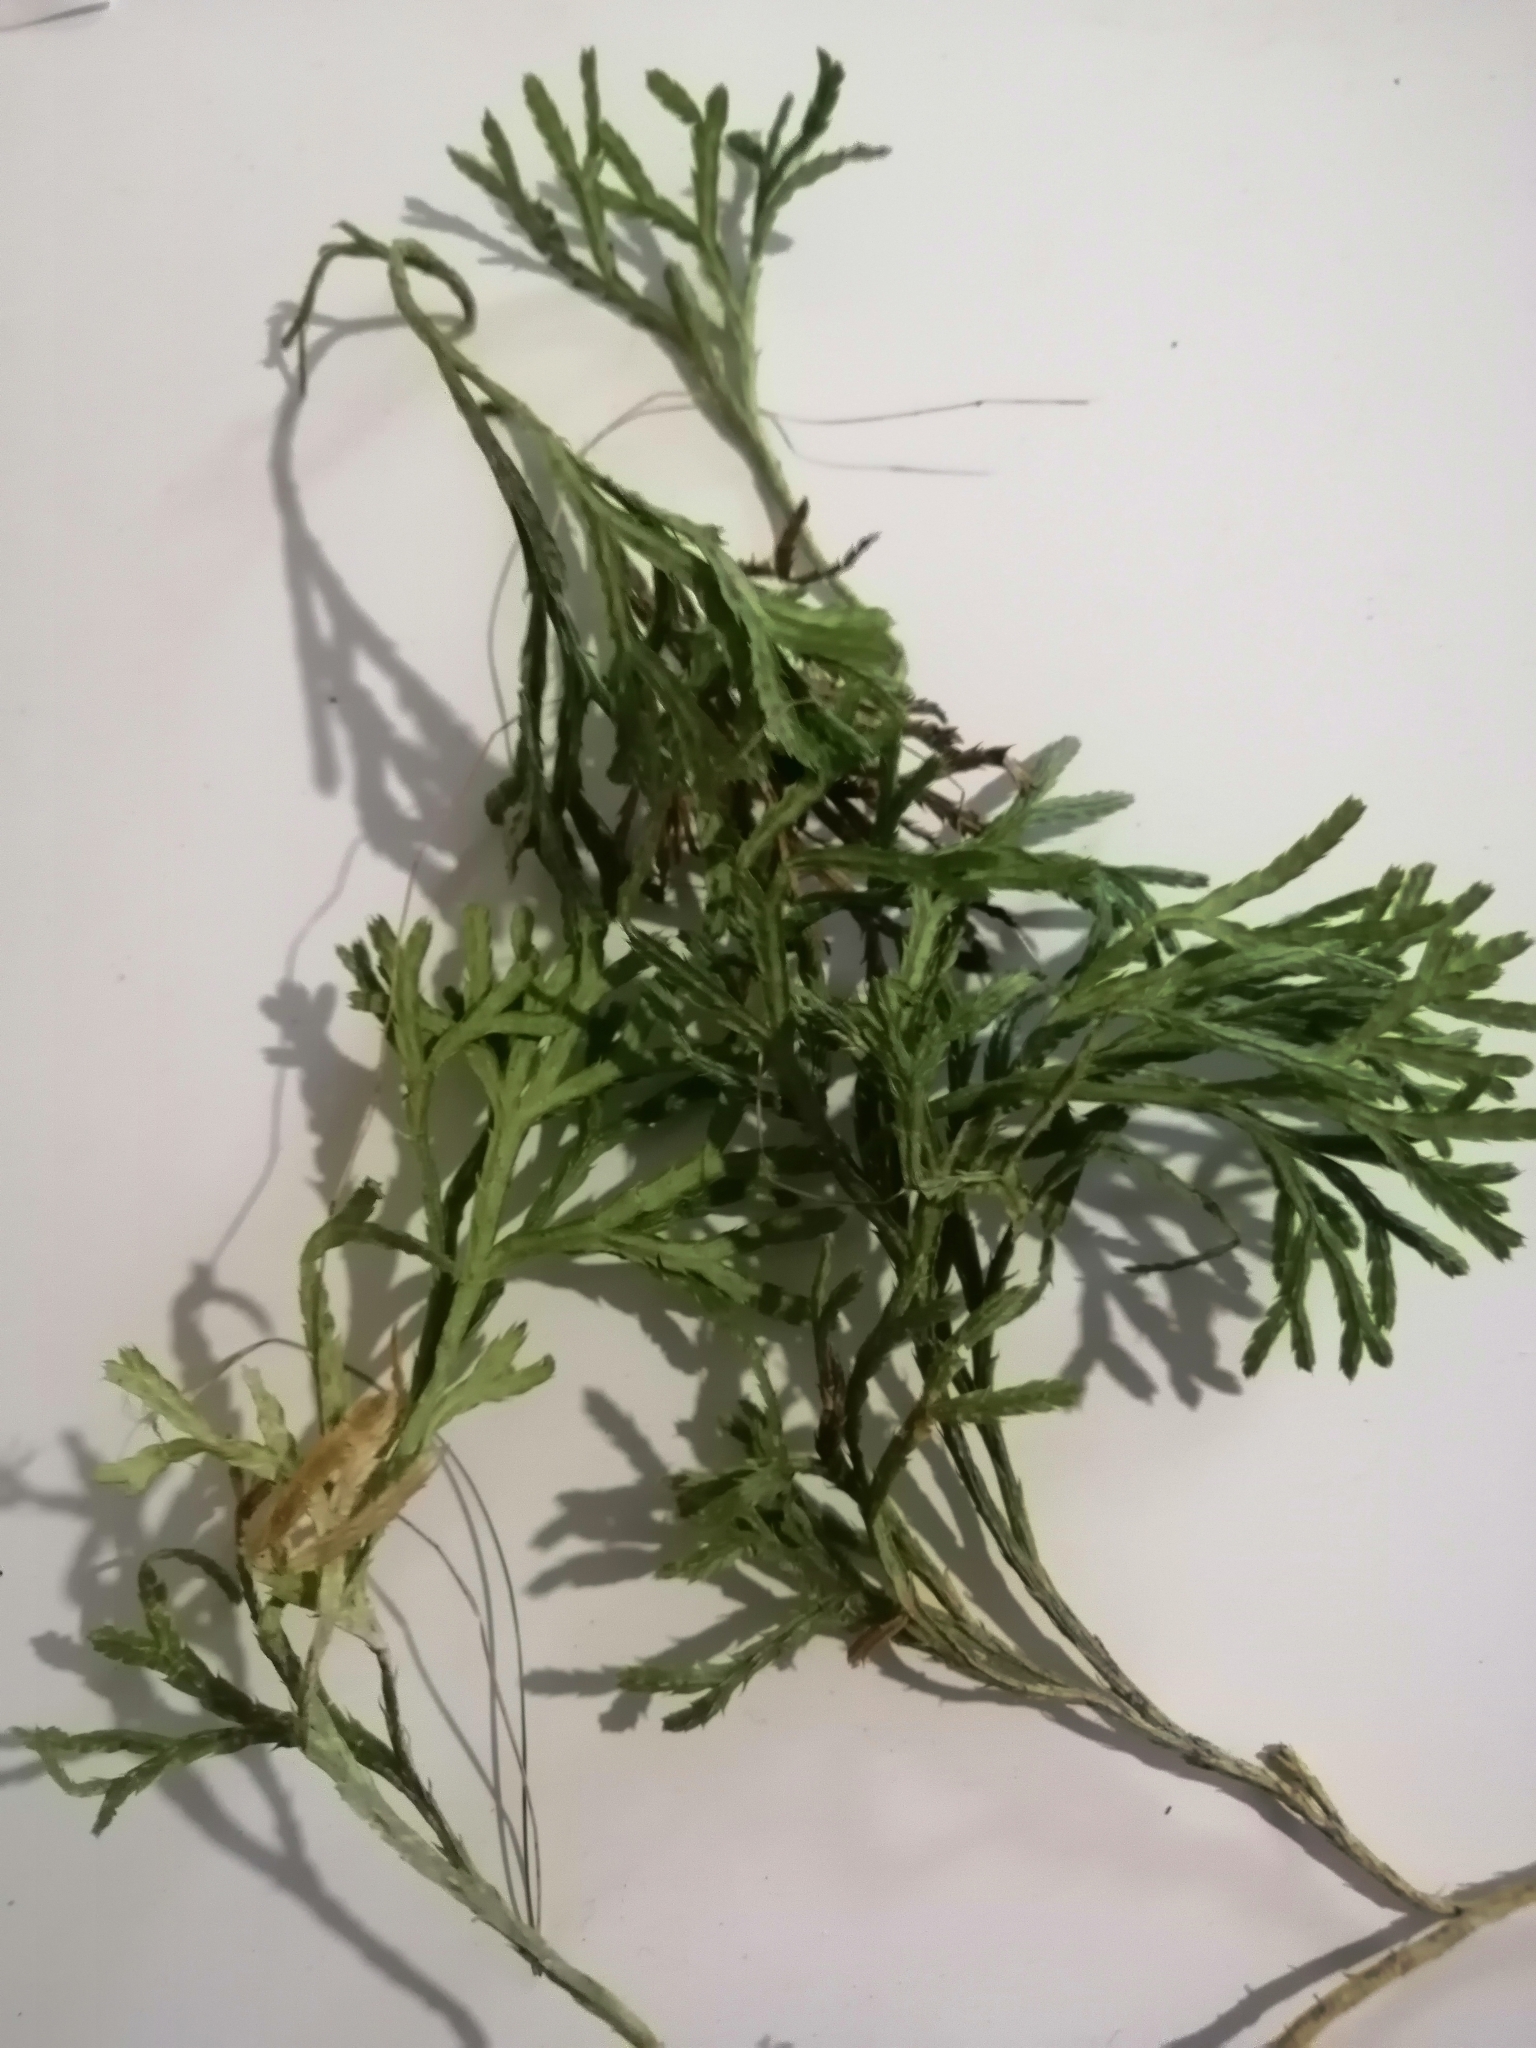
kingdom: Plantae
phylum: Tracheophyta
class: Lycopodiopsida
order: Lycopodiales
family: Lycopodiaceae
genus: Diphasiastrum
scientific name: Diphasiastrum complanatum
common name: Northern running-pine
